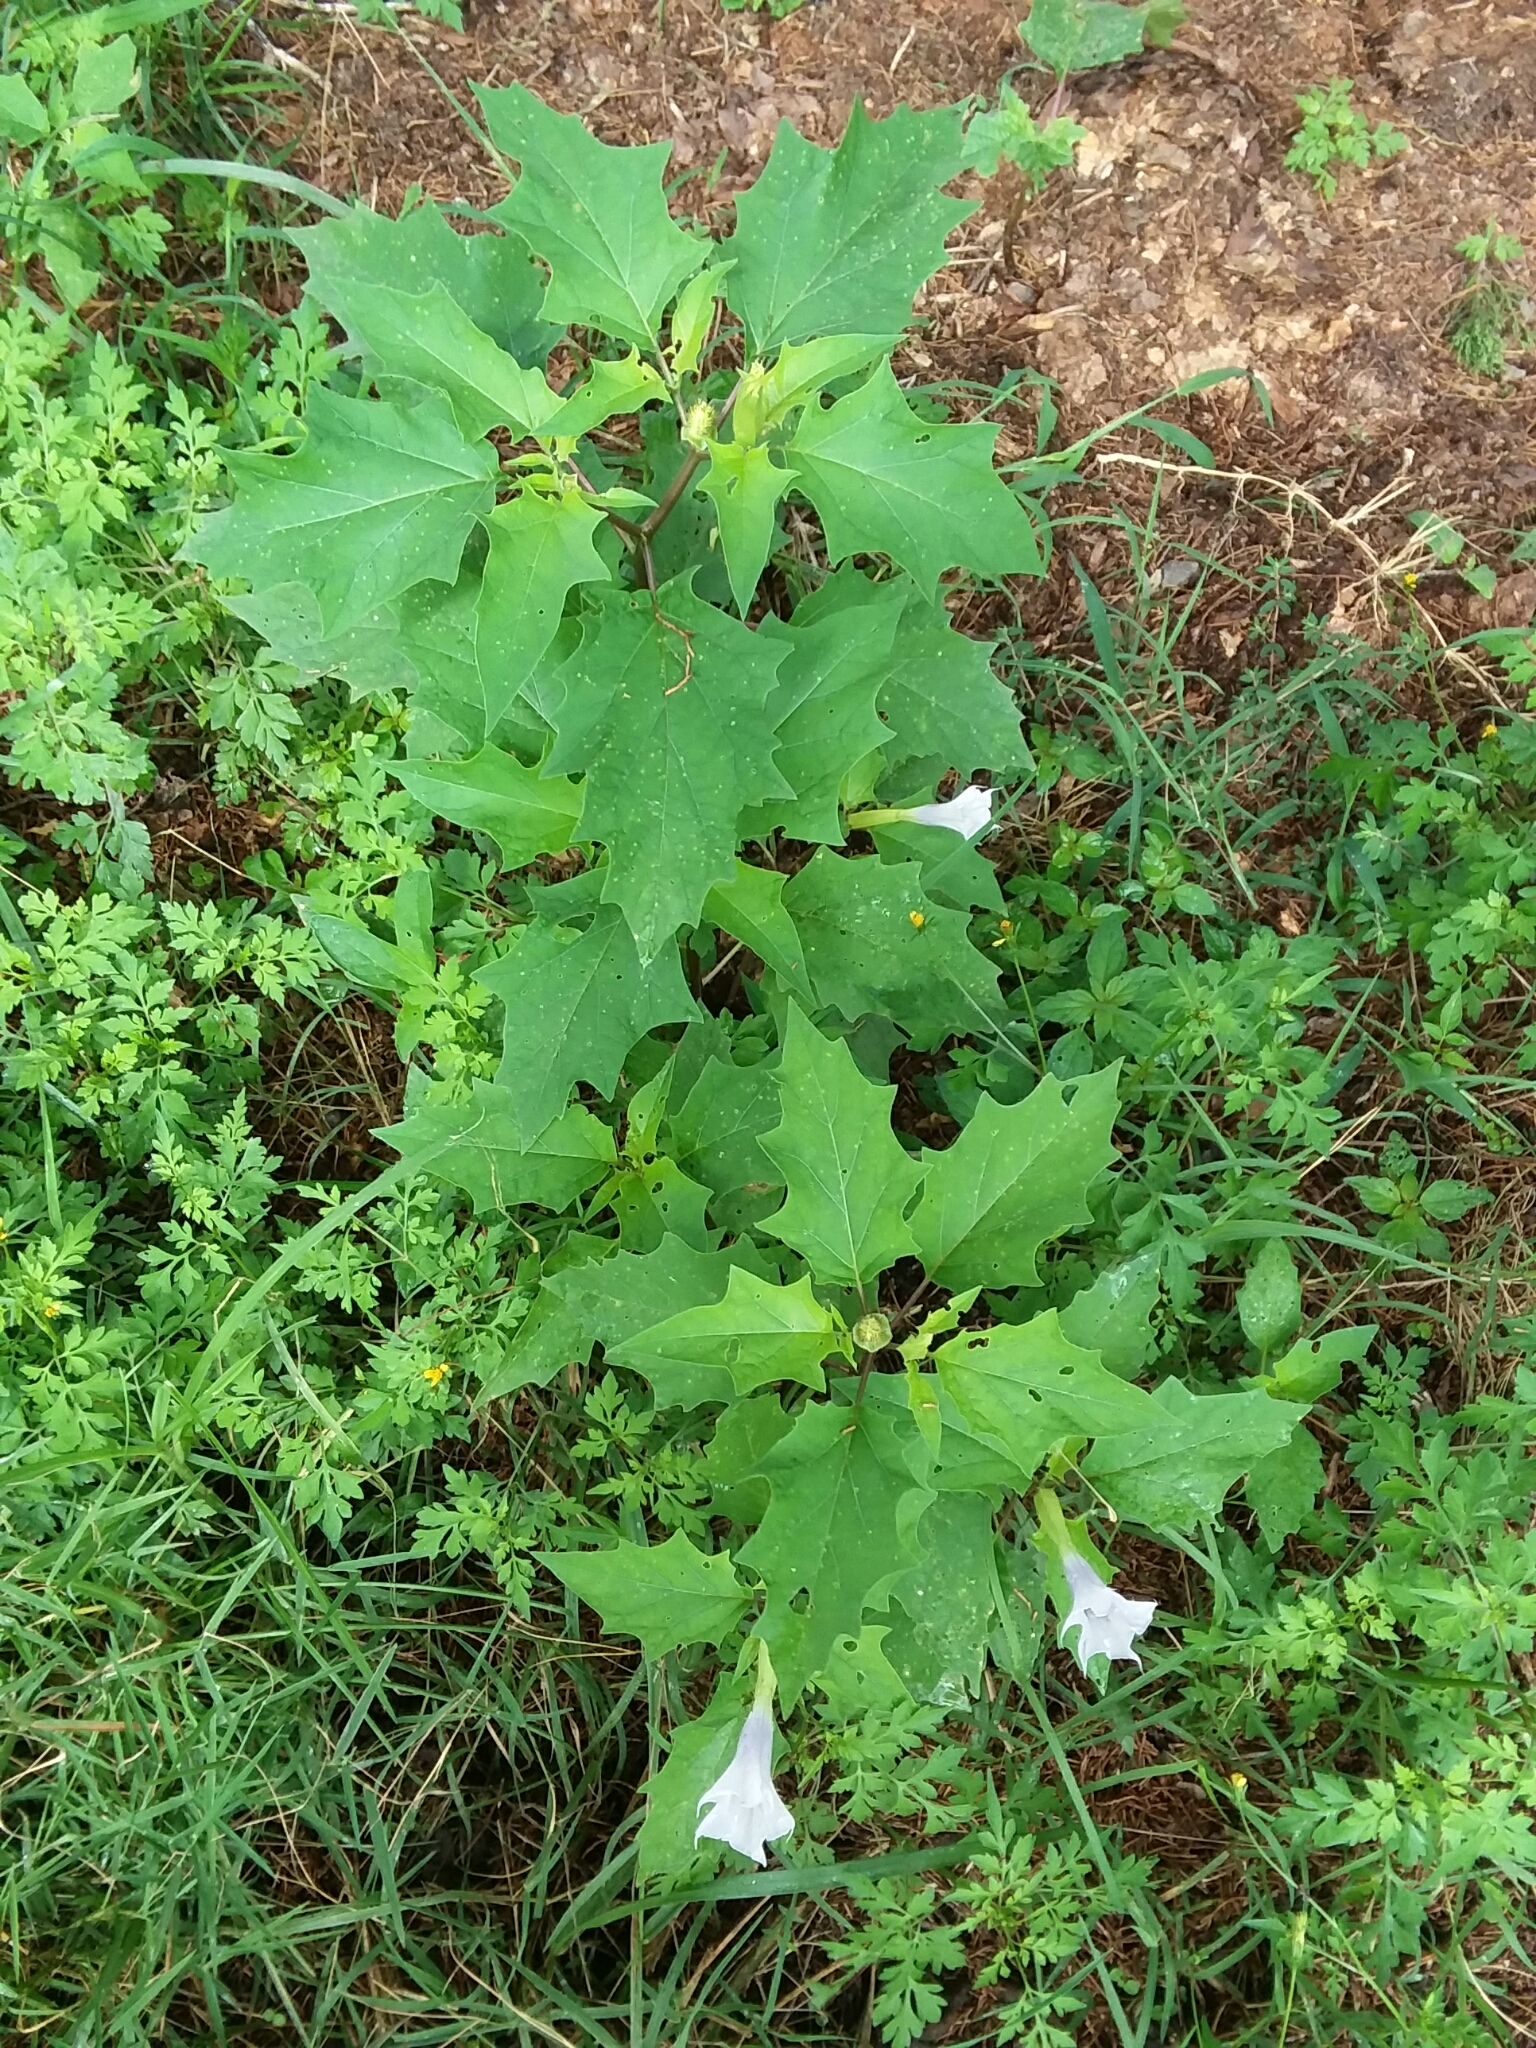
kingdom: Plantae
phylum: Tracheophyta
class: Magnoliopsida
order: Solanales
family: Solanaceae
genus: Datura
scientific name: Datura stramonium
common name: Thorn-apple
